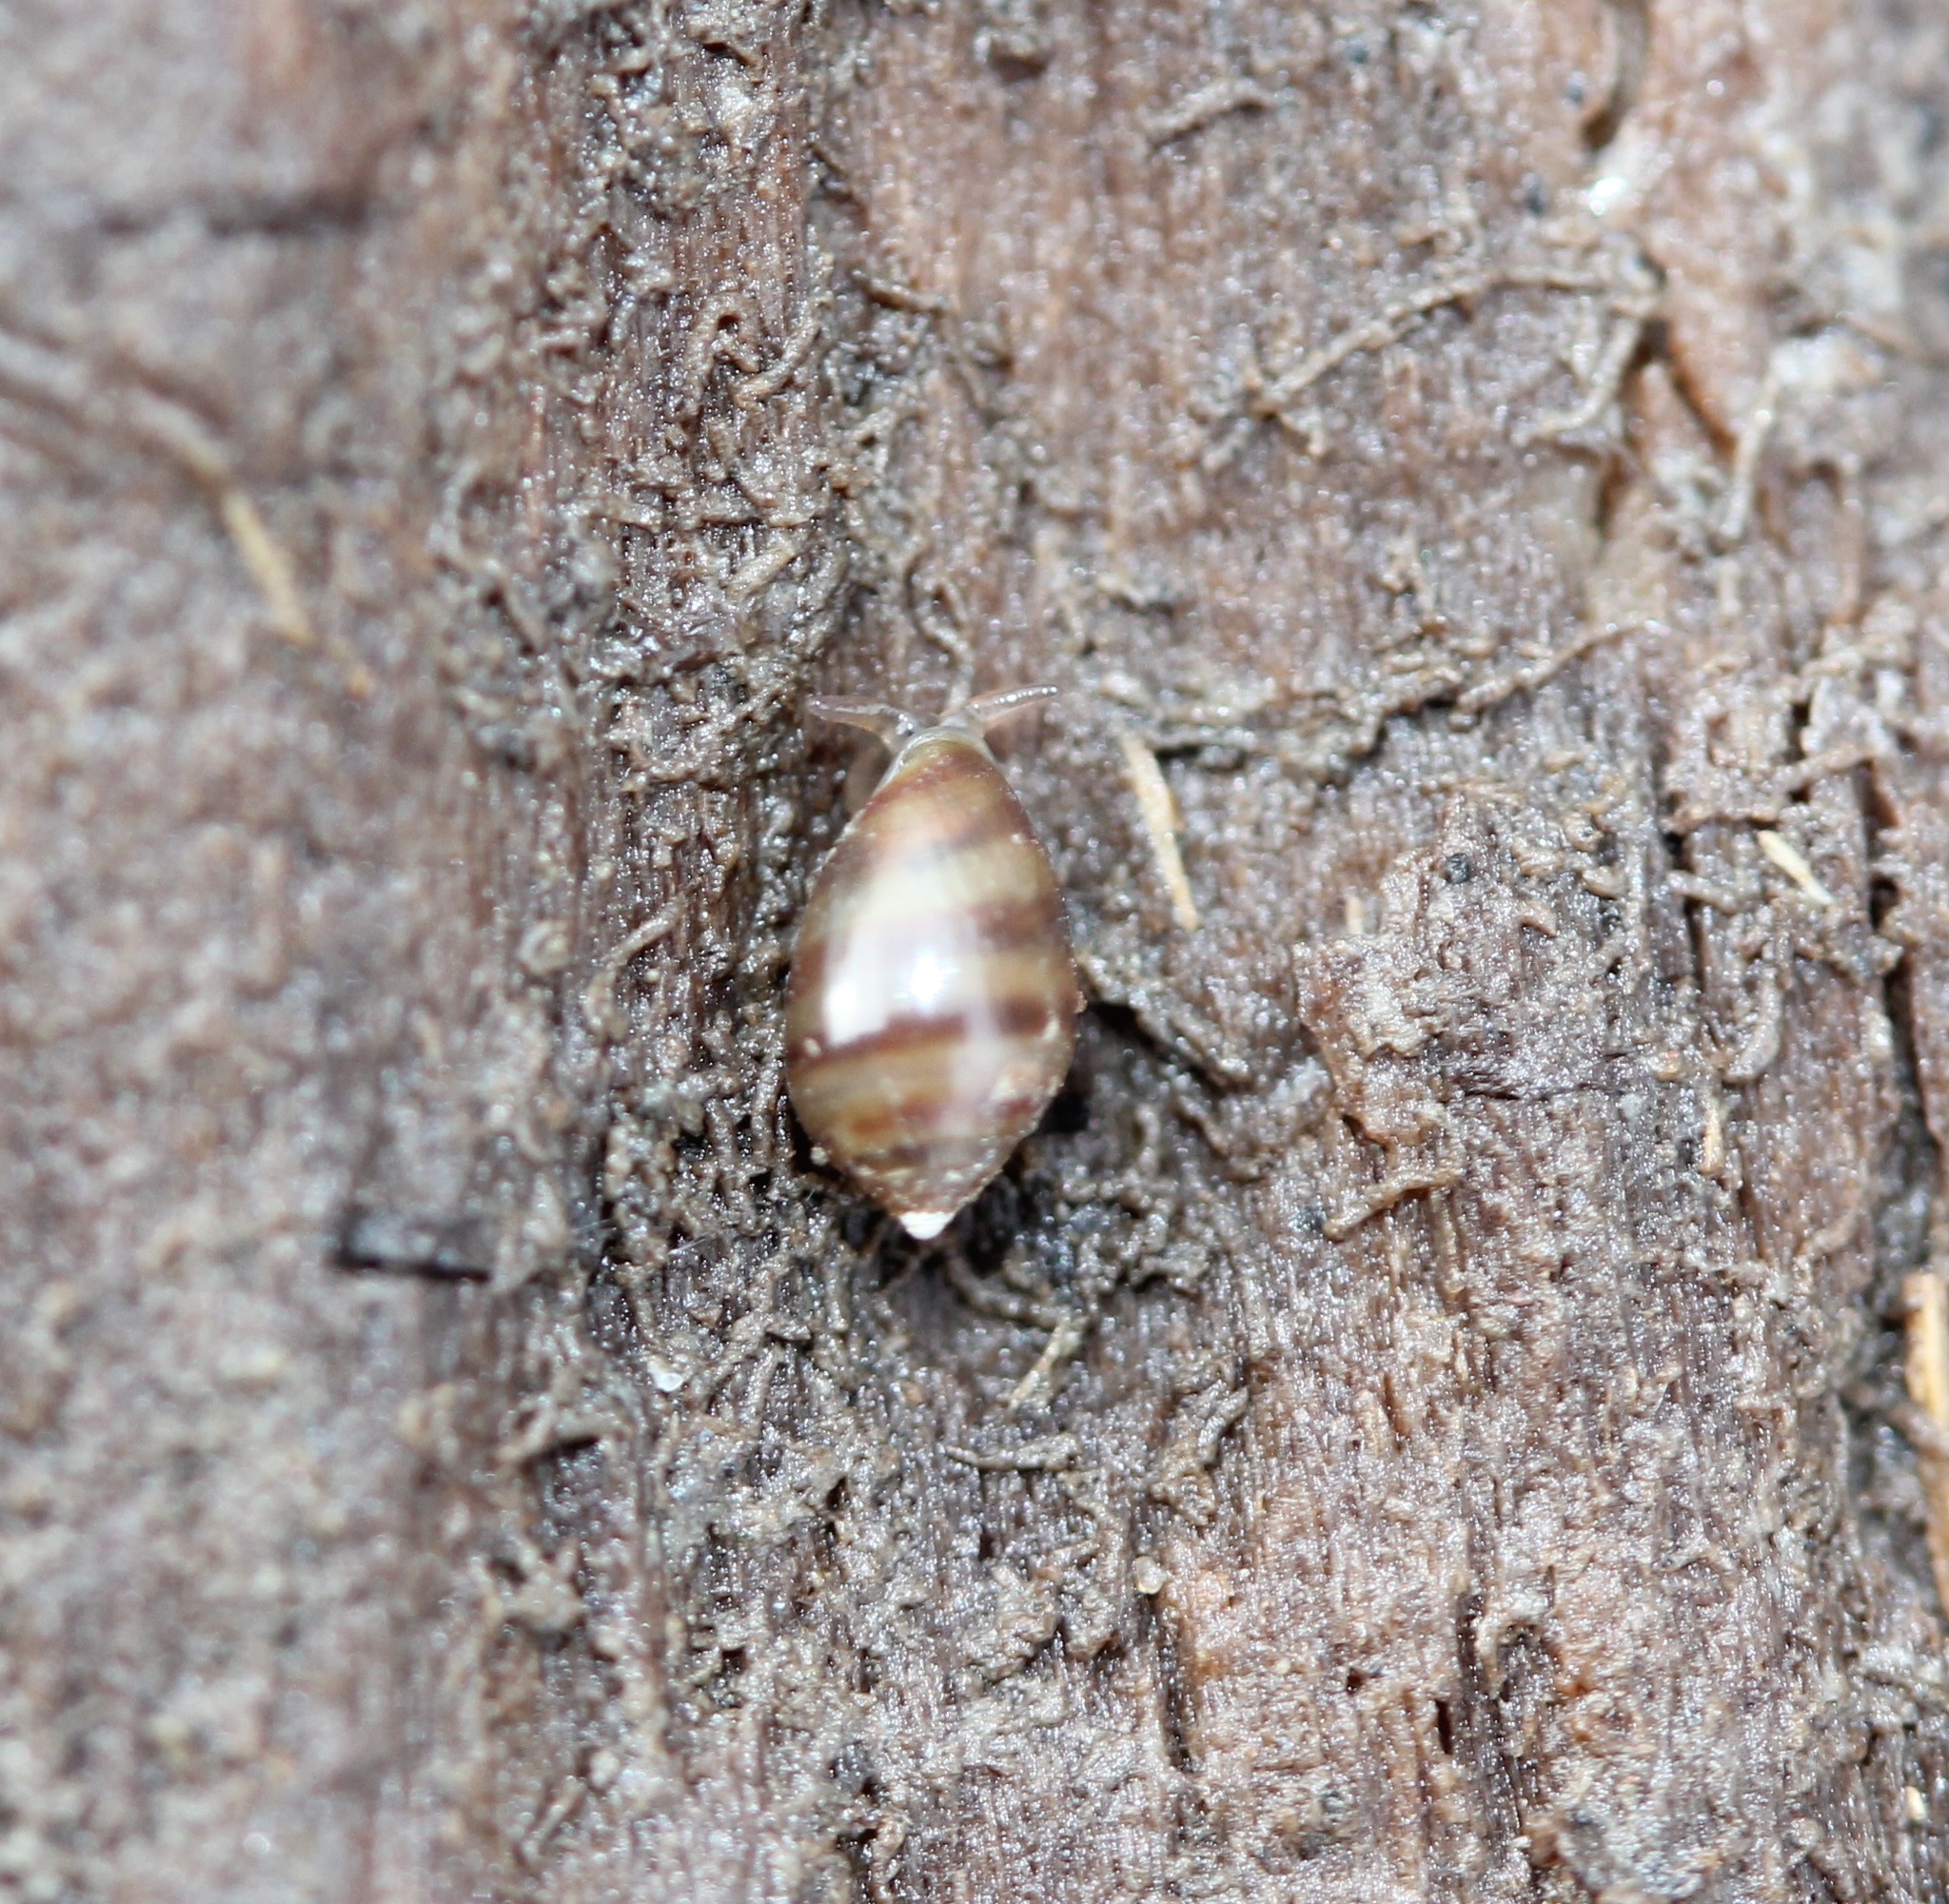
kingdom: Animalia
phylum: Mollusca
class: Gastropoda
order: Ellobiida
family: Ellobiidae
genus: Melampus
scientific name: Melampus bidentatus
